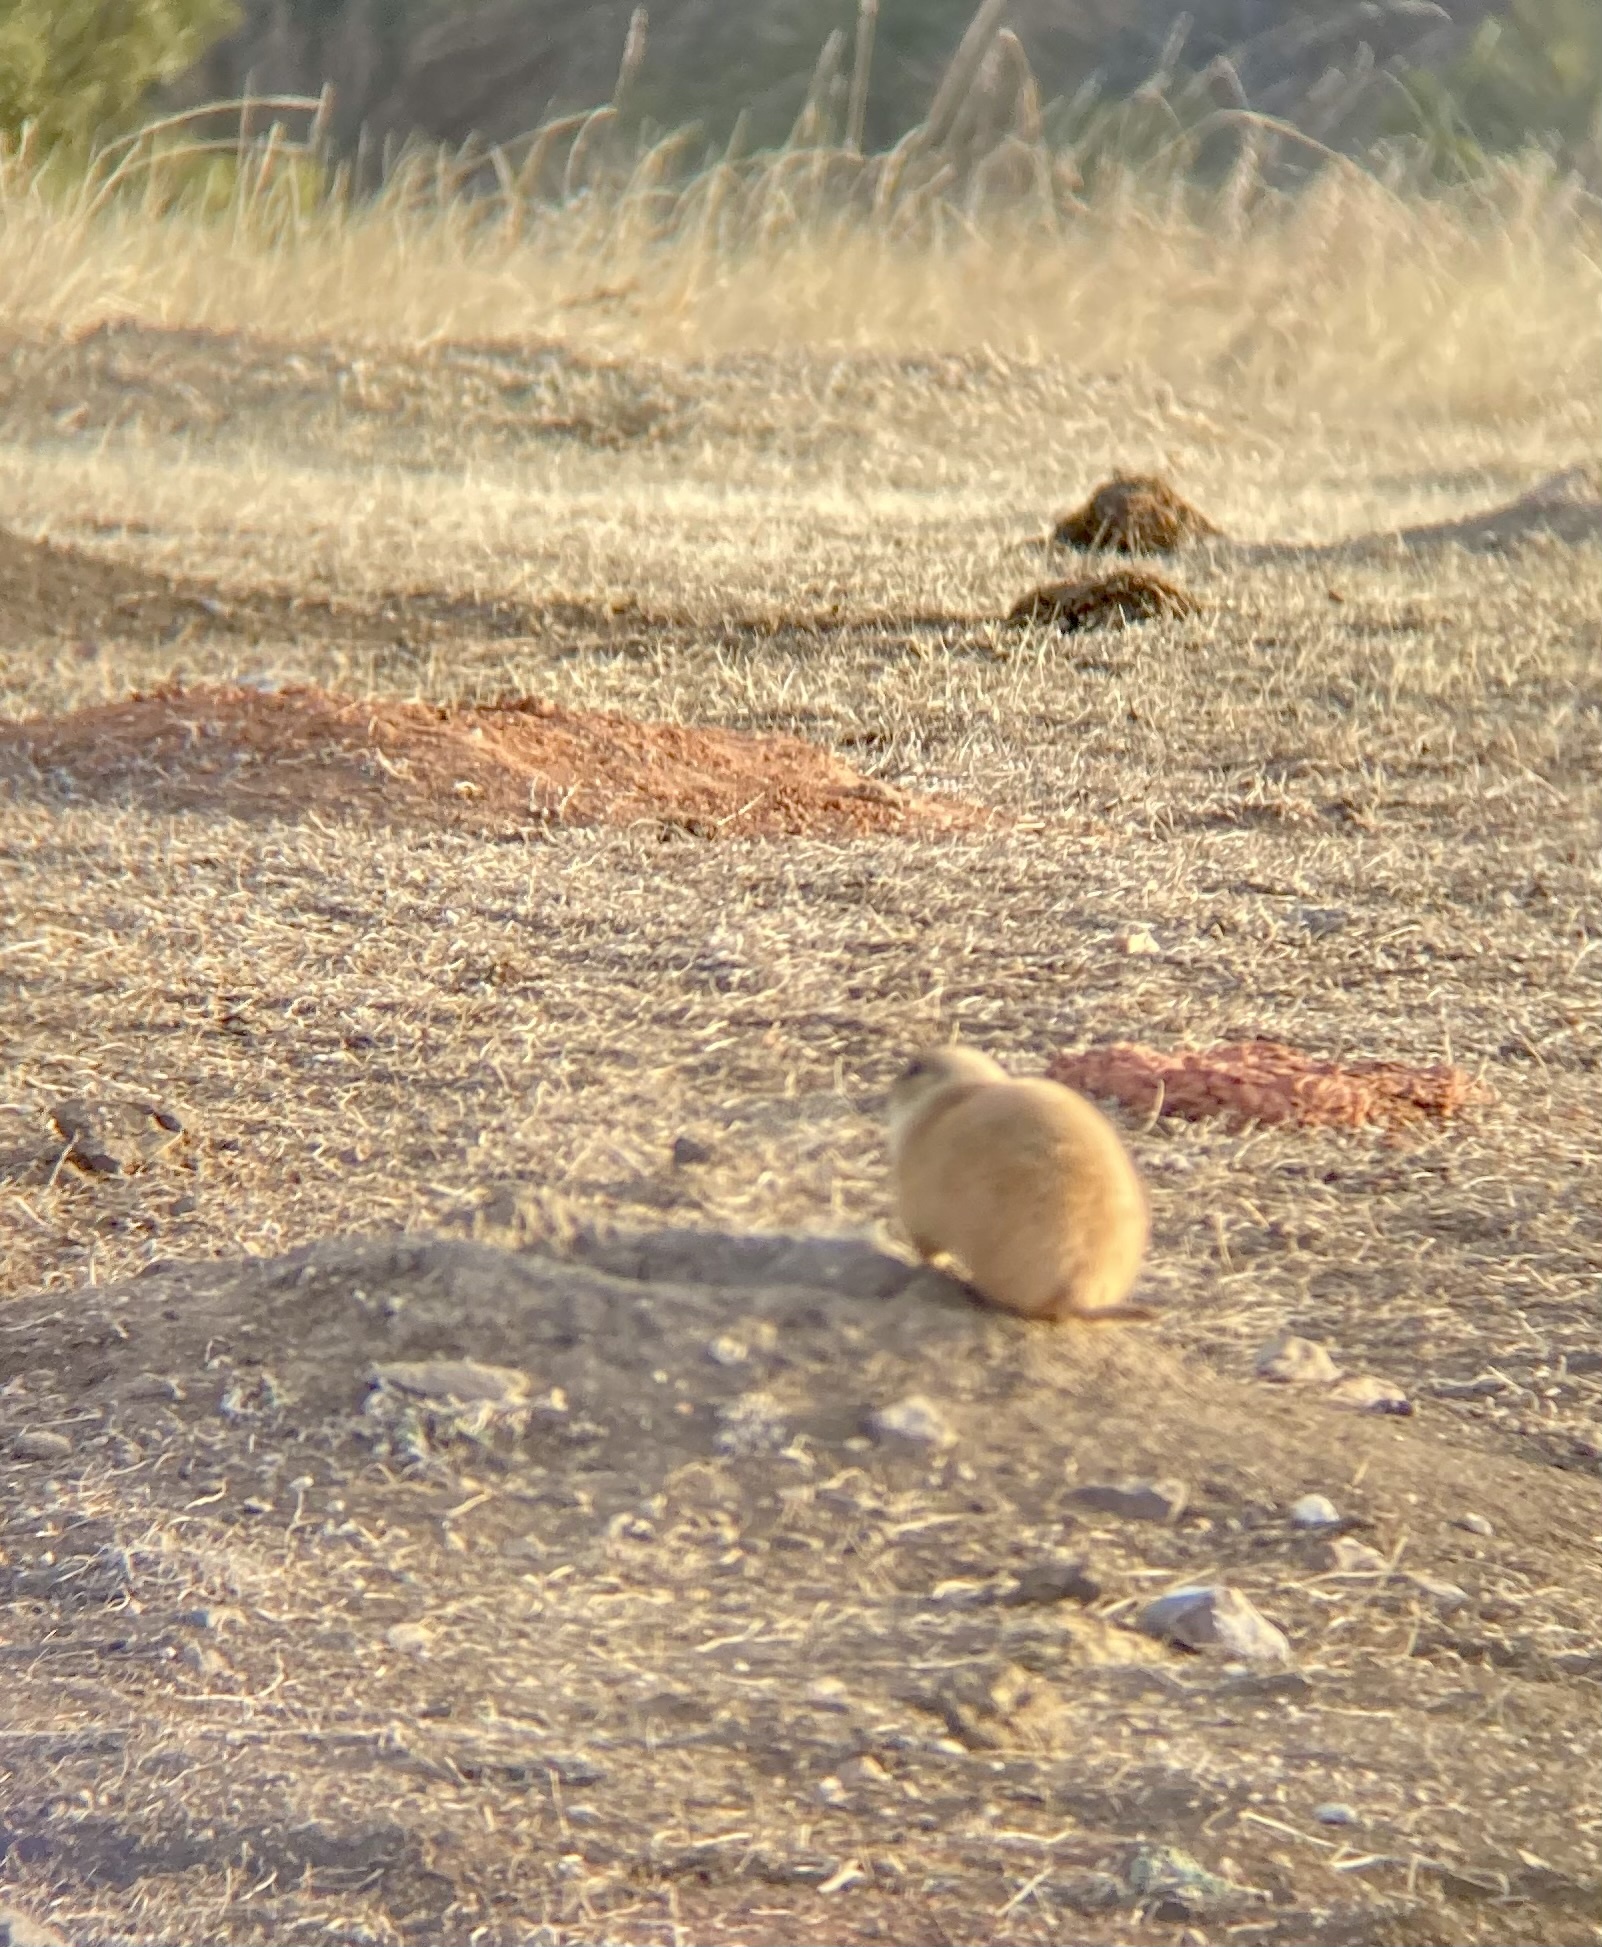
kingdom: Animalia
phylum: Chordata
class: Mammalia
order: Rodentia
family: Sciuridae
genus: Cynomys
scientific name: Cynomys ludovicianus
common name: Black-tailed prairie dog
